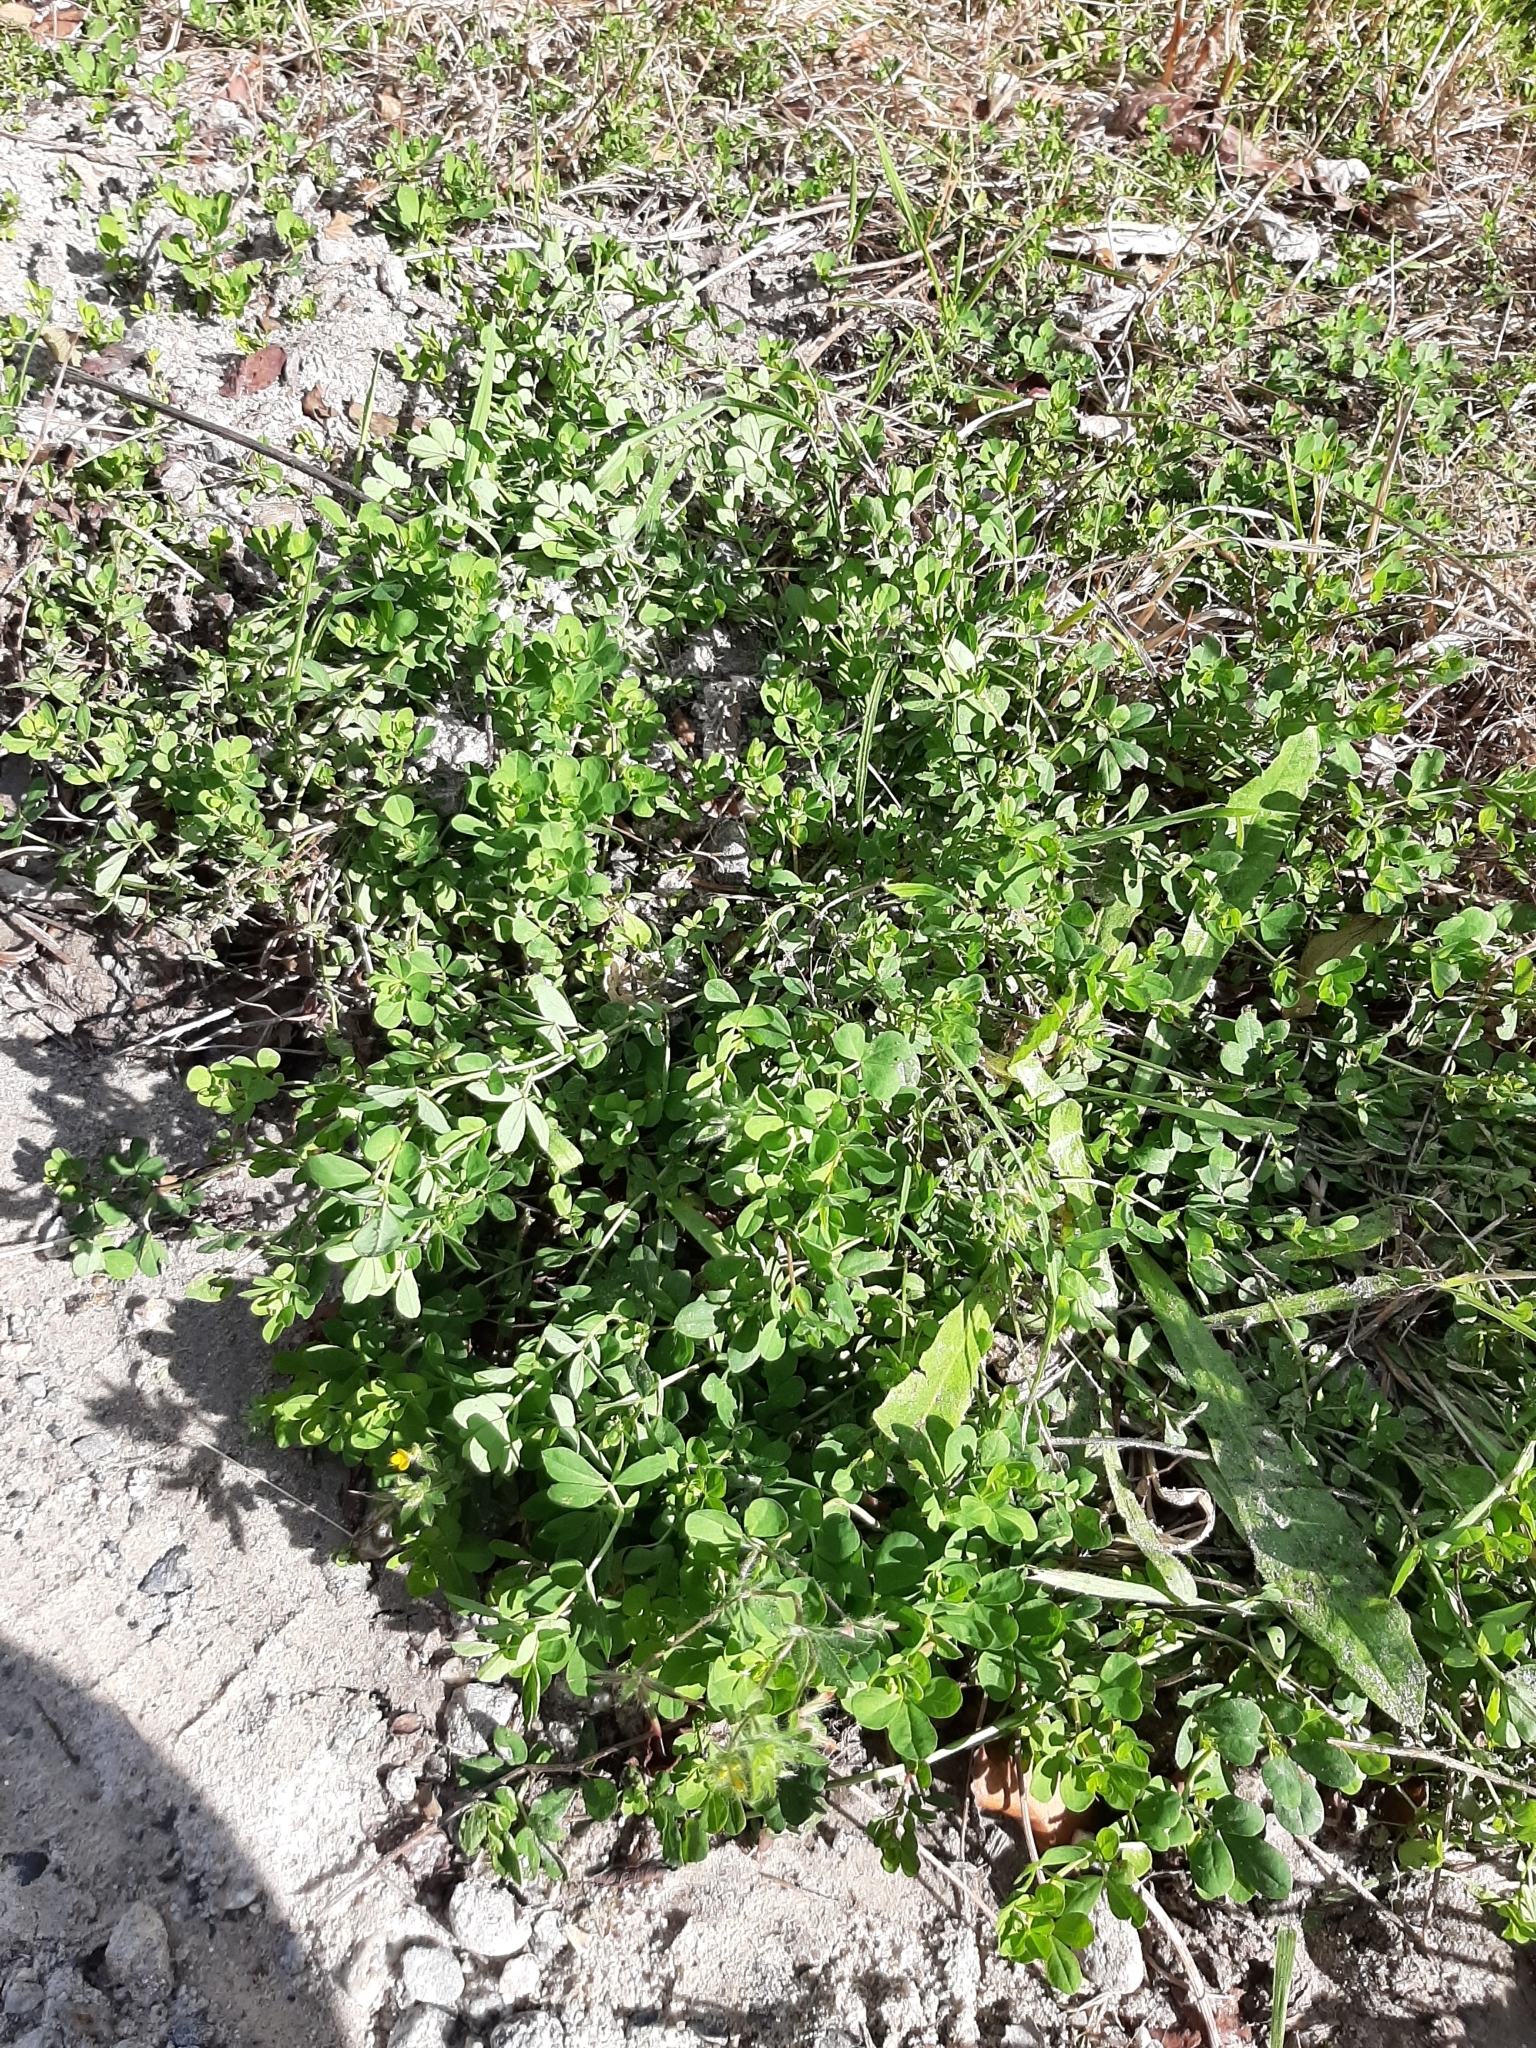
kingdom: Plantae
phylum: Tracheophyta
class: Magnoliopsida
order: Fabales
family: Fabaceae
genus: Lotus
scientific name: Lotus pedunculatus
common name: Greater birdsfoot-trefoil
